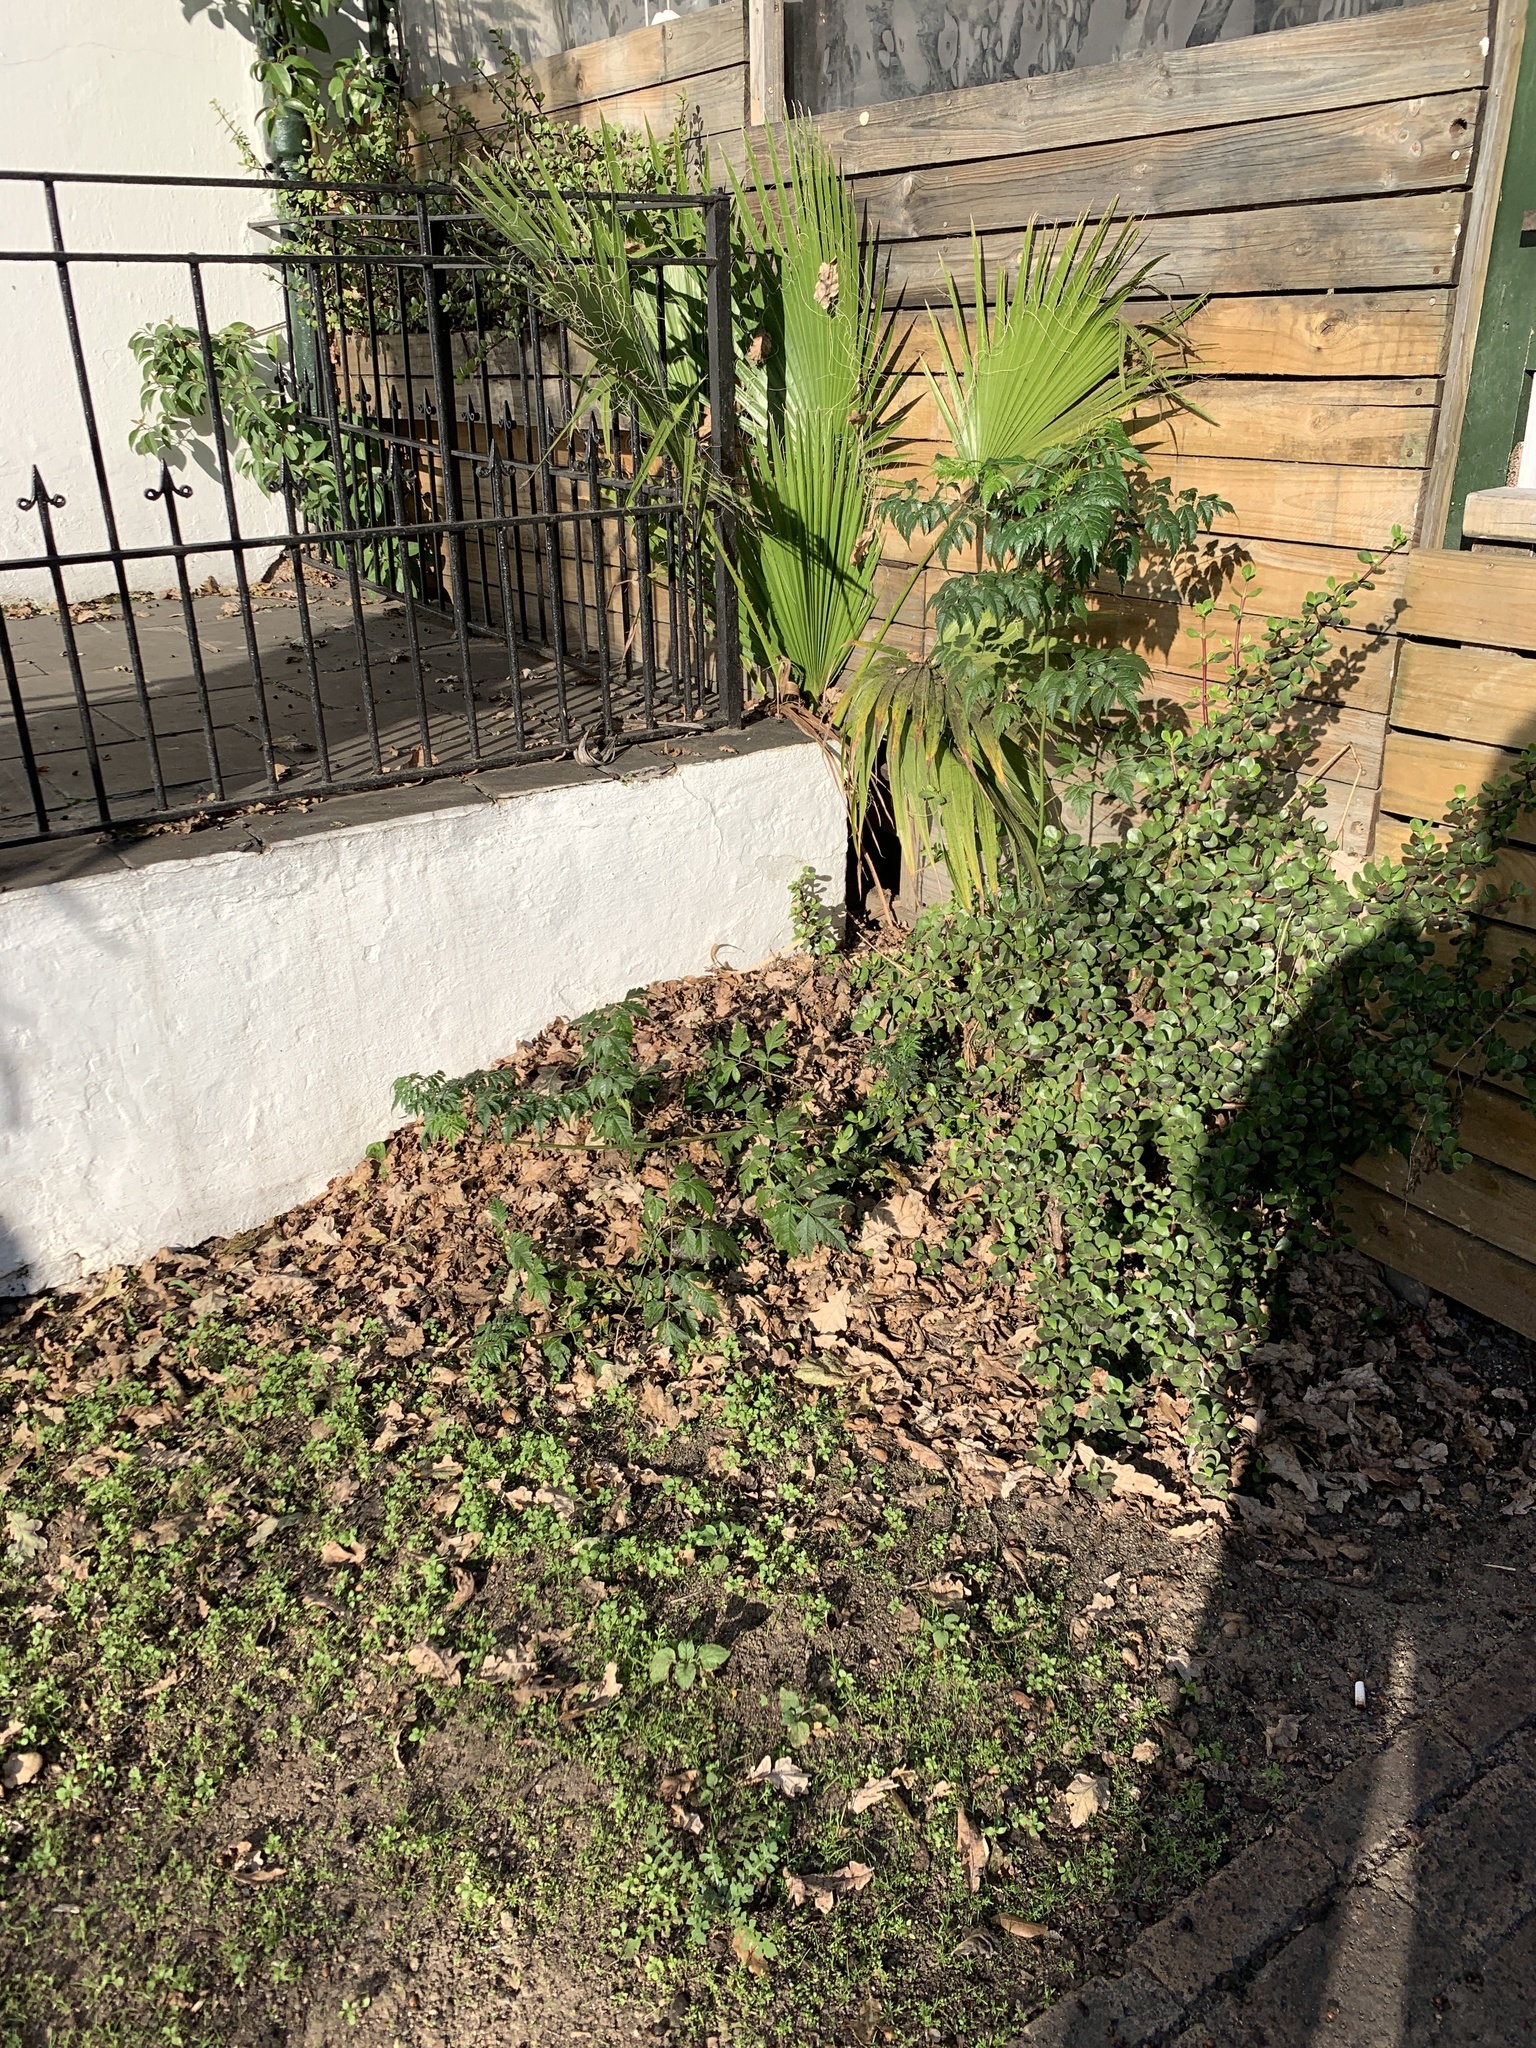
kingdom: Plantae
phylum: Tracheophyta
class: Magnoliopsida
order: Sapindales
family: Meliaceae
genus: Melia
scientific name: Melia azedarach
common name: Chinaberrytree
